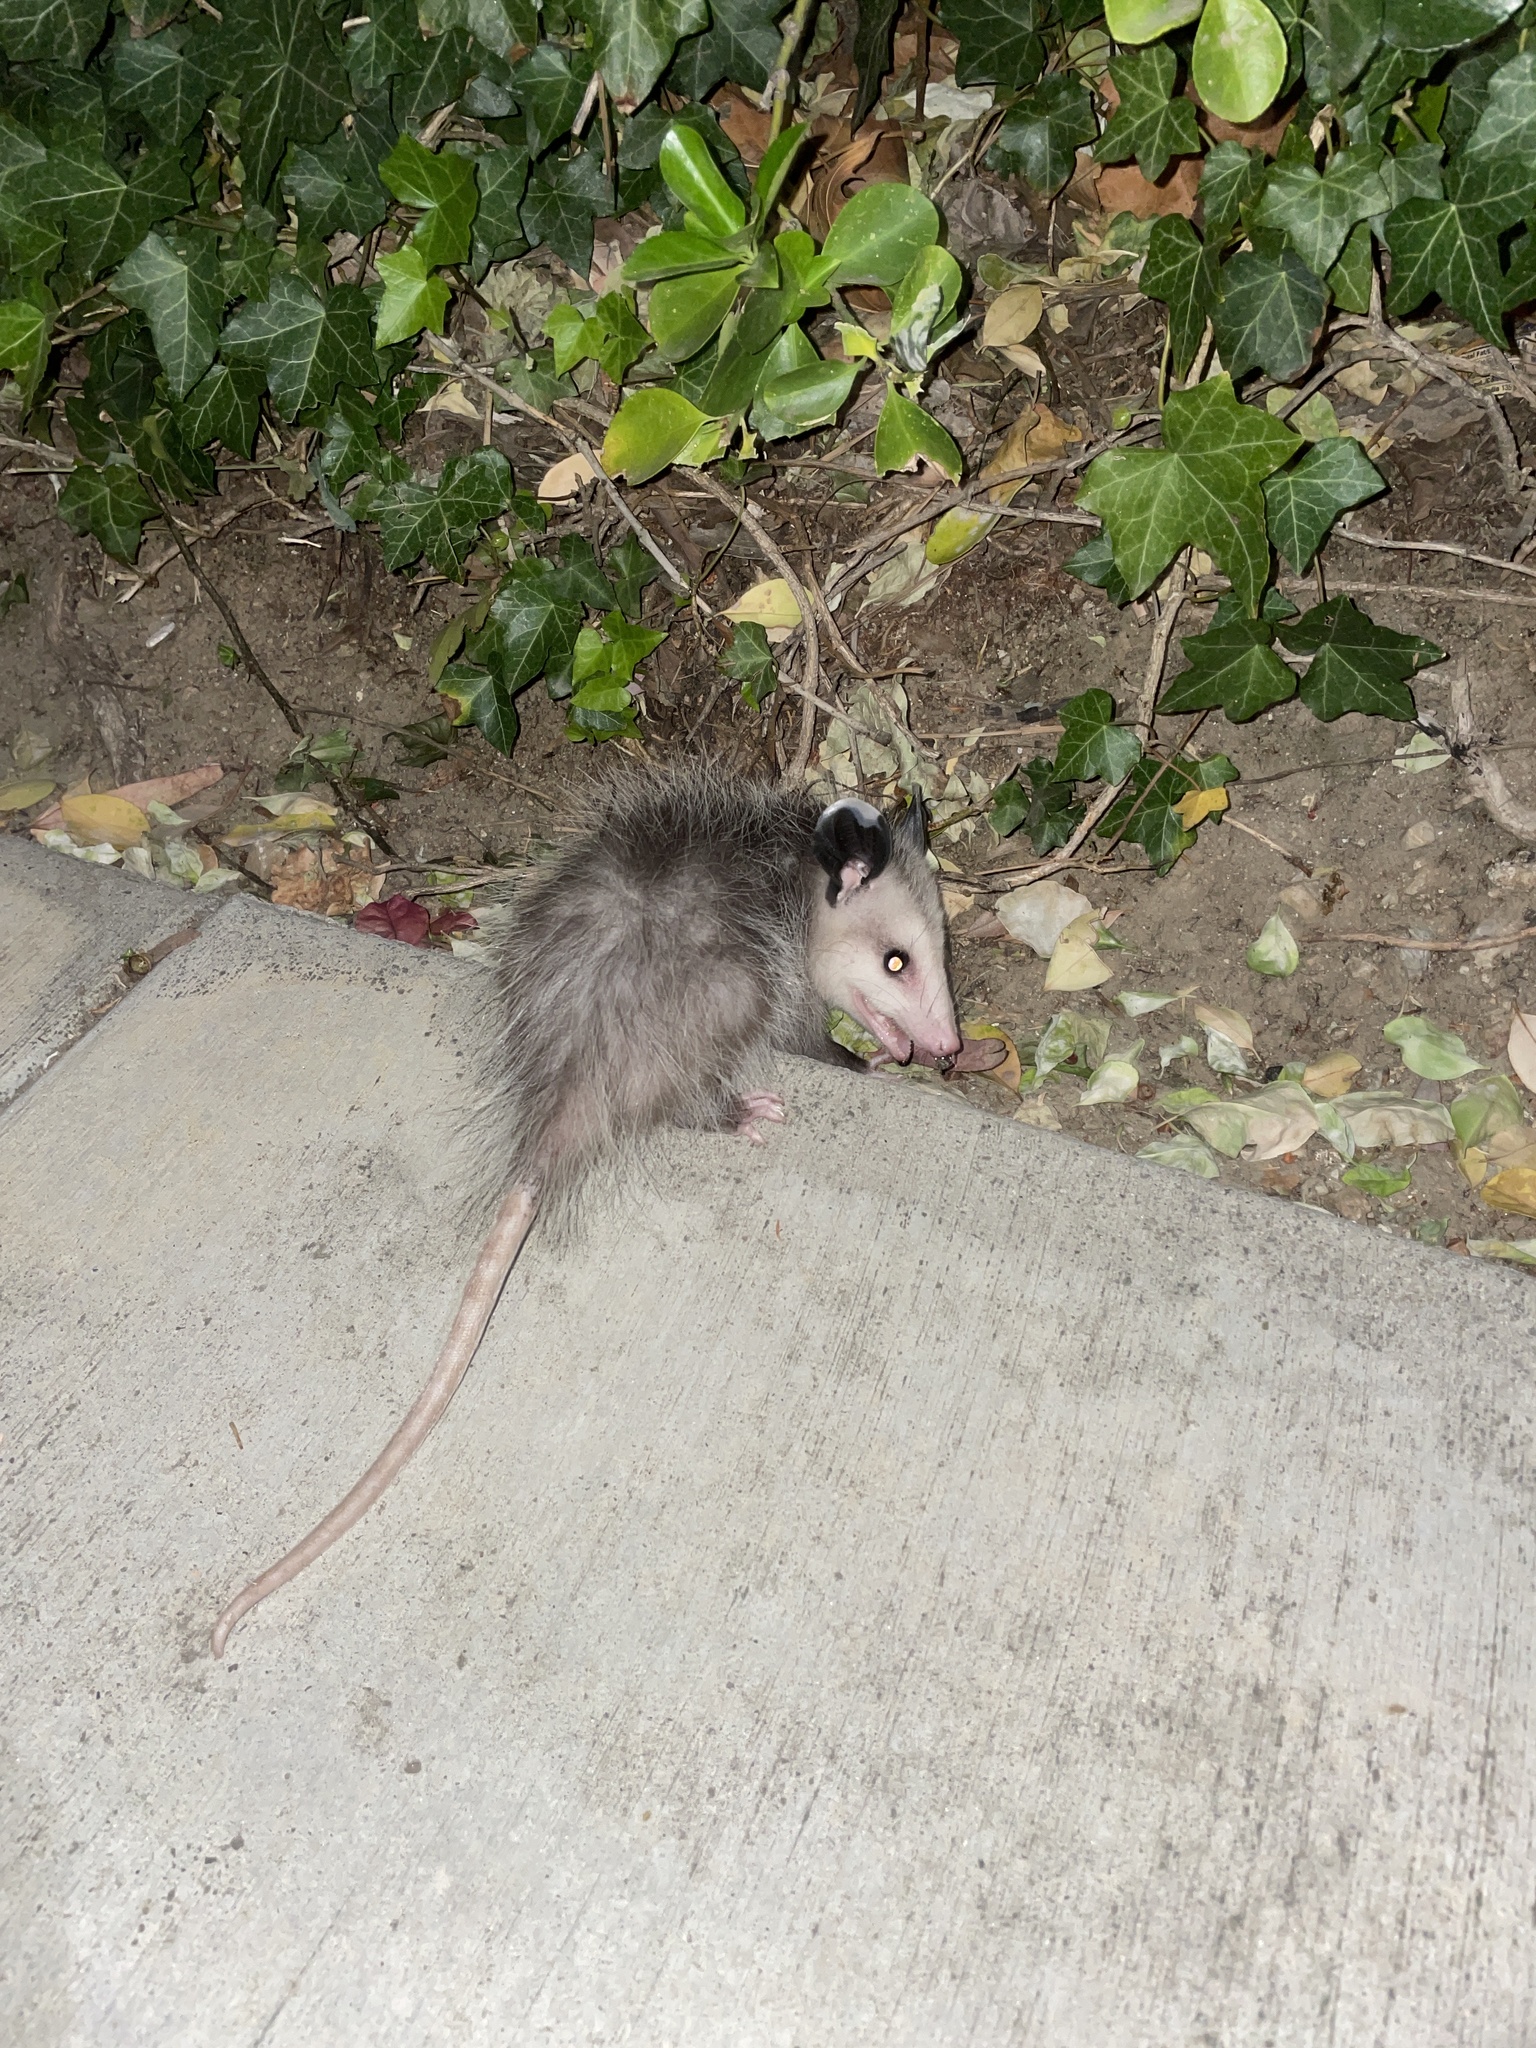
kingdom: Animalia
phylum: Chordata
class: Mammalia
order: Didelphimorphia
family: Didelphidae
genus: Didelphis
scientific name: Didelphis virginiana
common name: Virginia opossum
